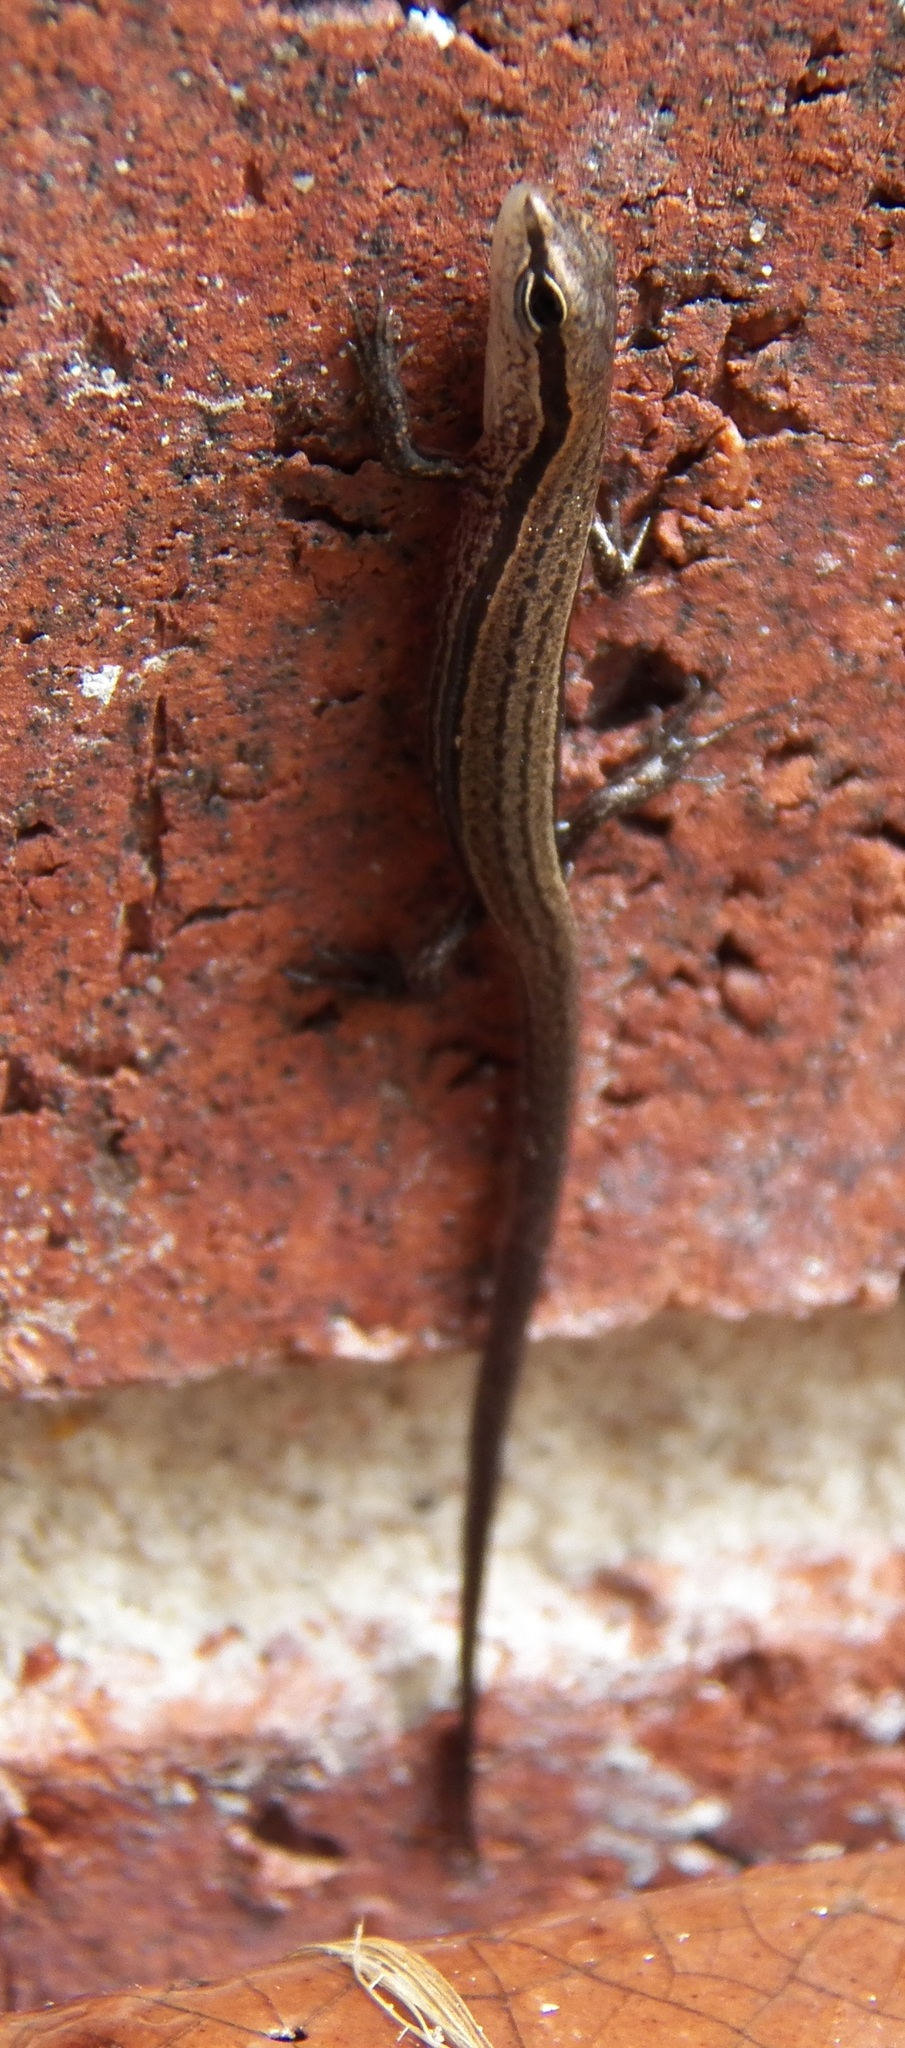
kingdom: Animalia
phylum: Chordata
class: Squamata
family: Scincidae
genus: Scincella
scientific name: Scincella lateralis
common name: Ground skink
